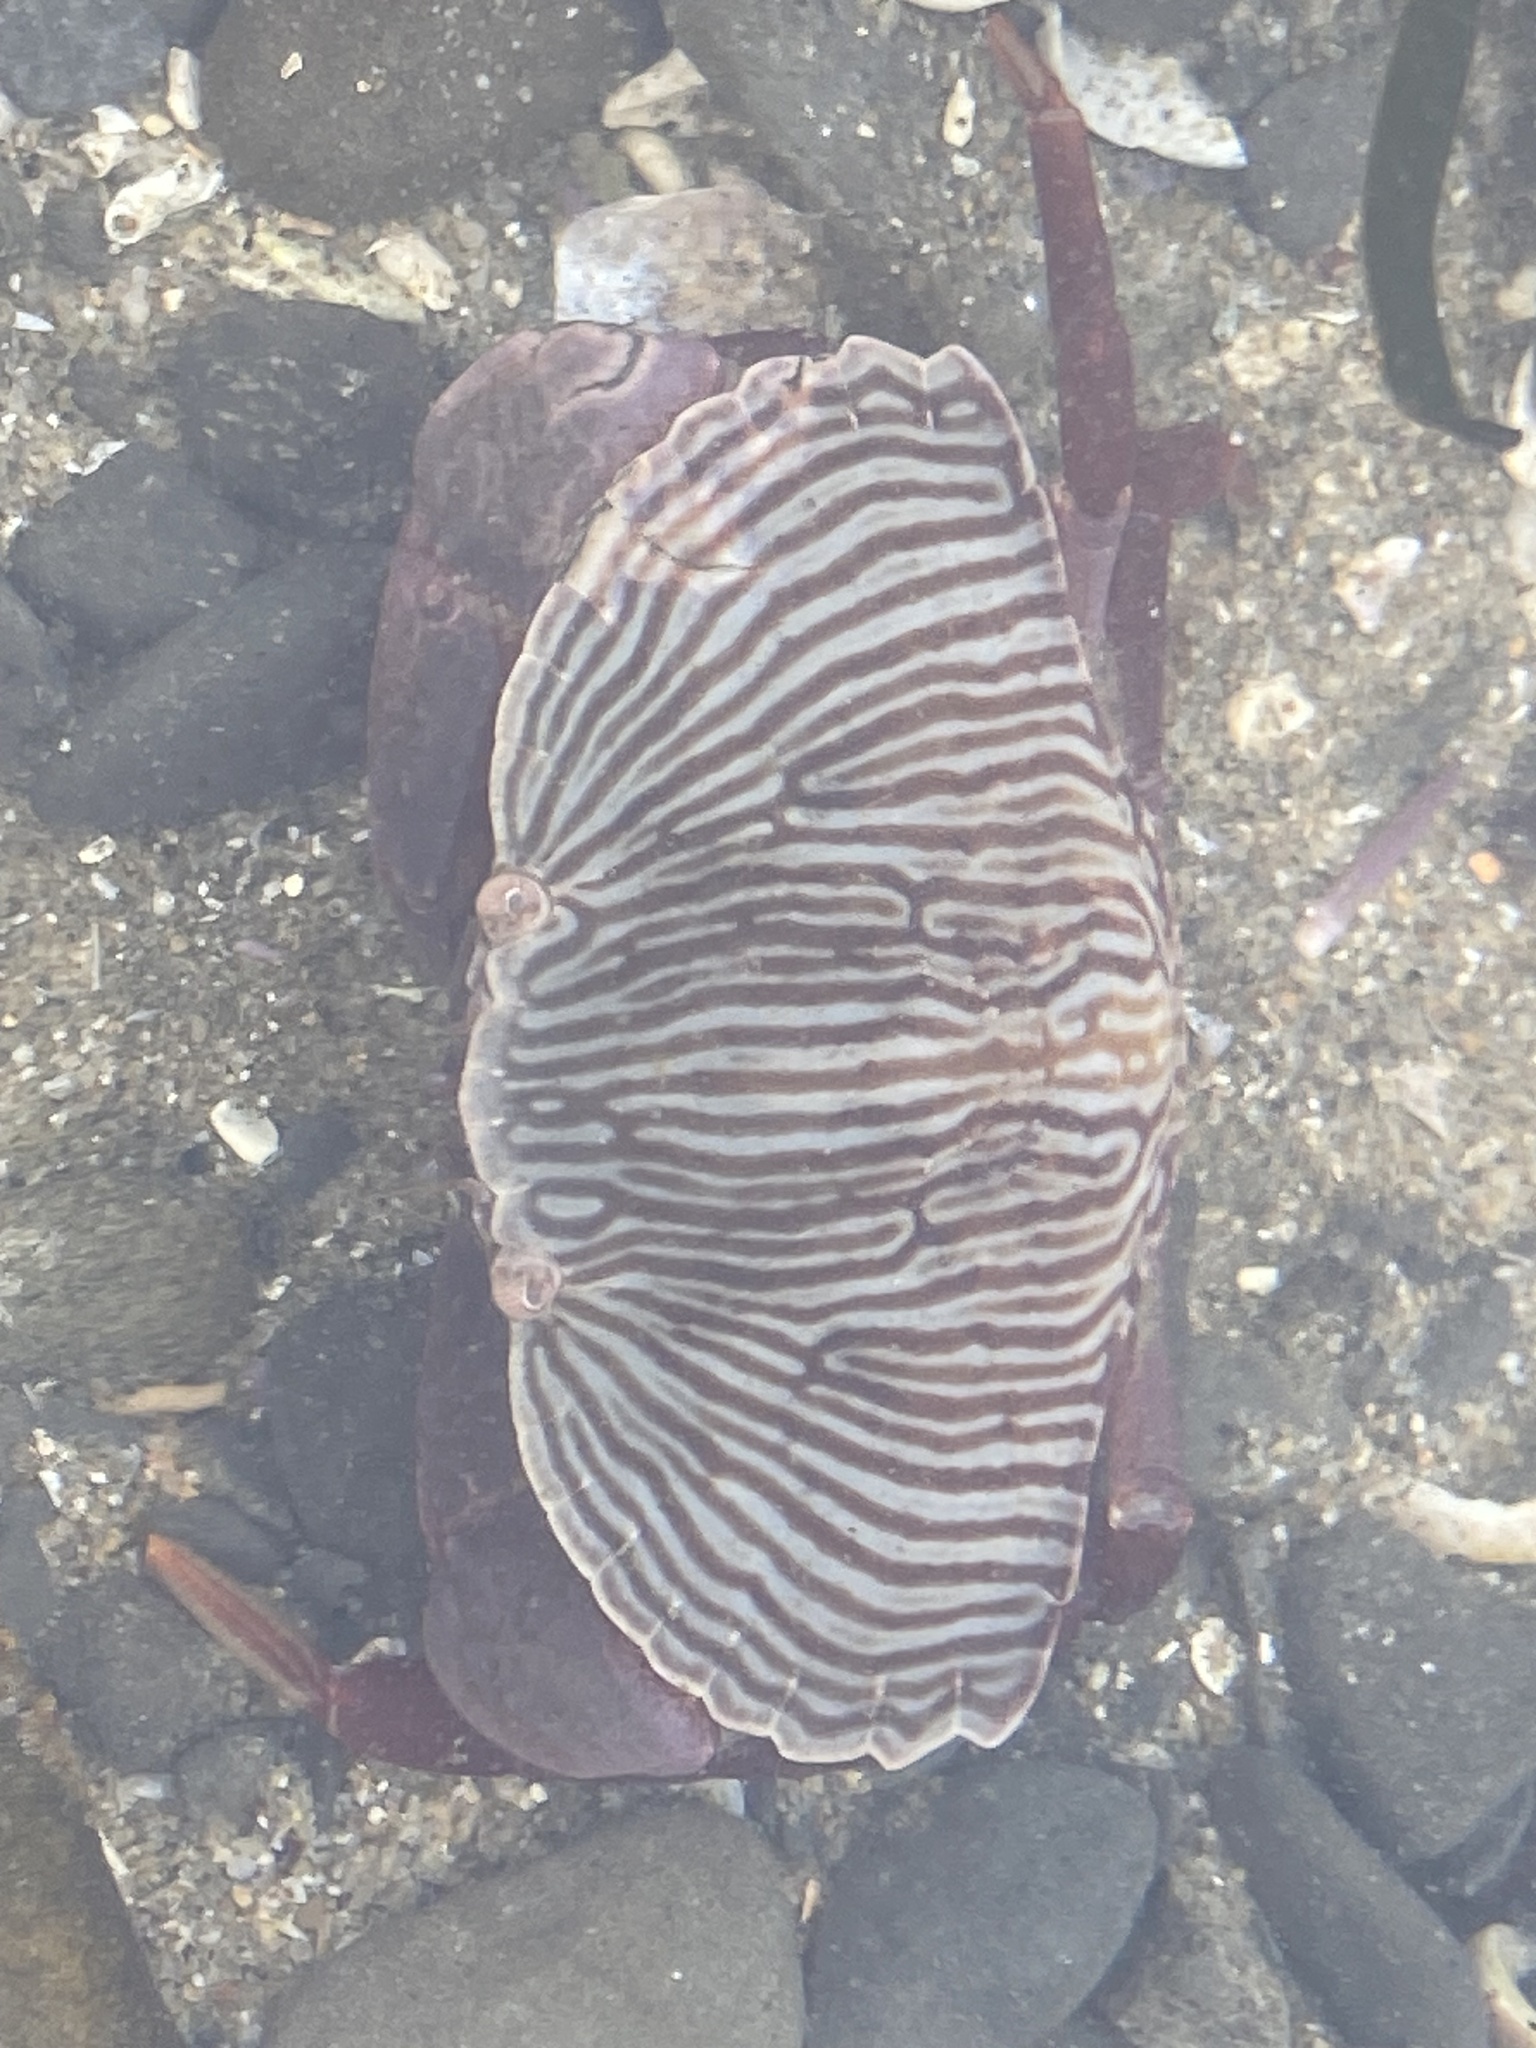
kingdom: Animalia
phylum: Arthropoda
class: Malacostraca
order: Decapoda
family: Cancridae
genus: Cancer
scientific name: Cancer productus
